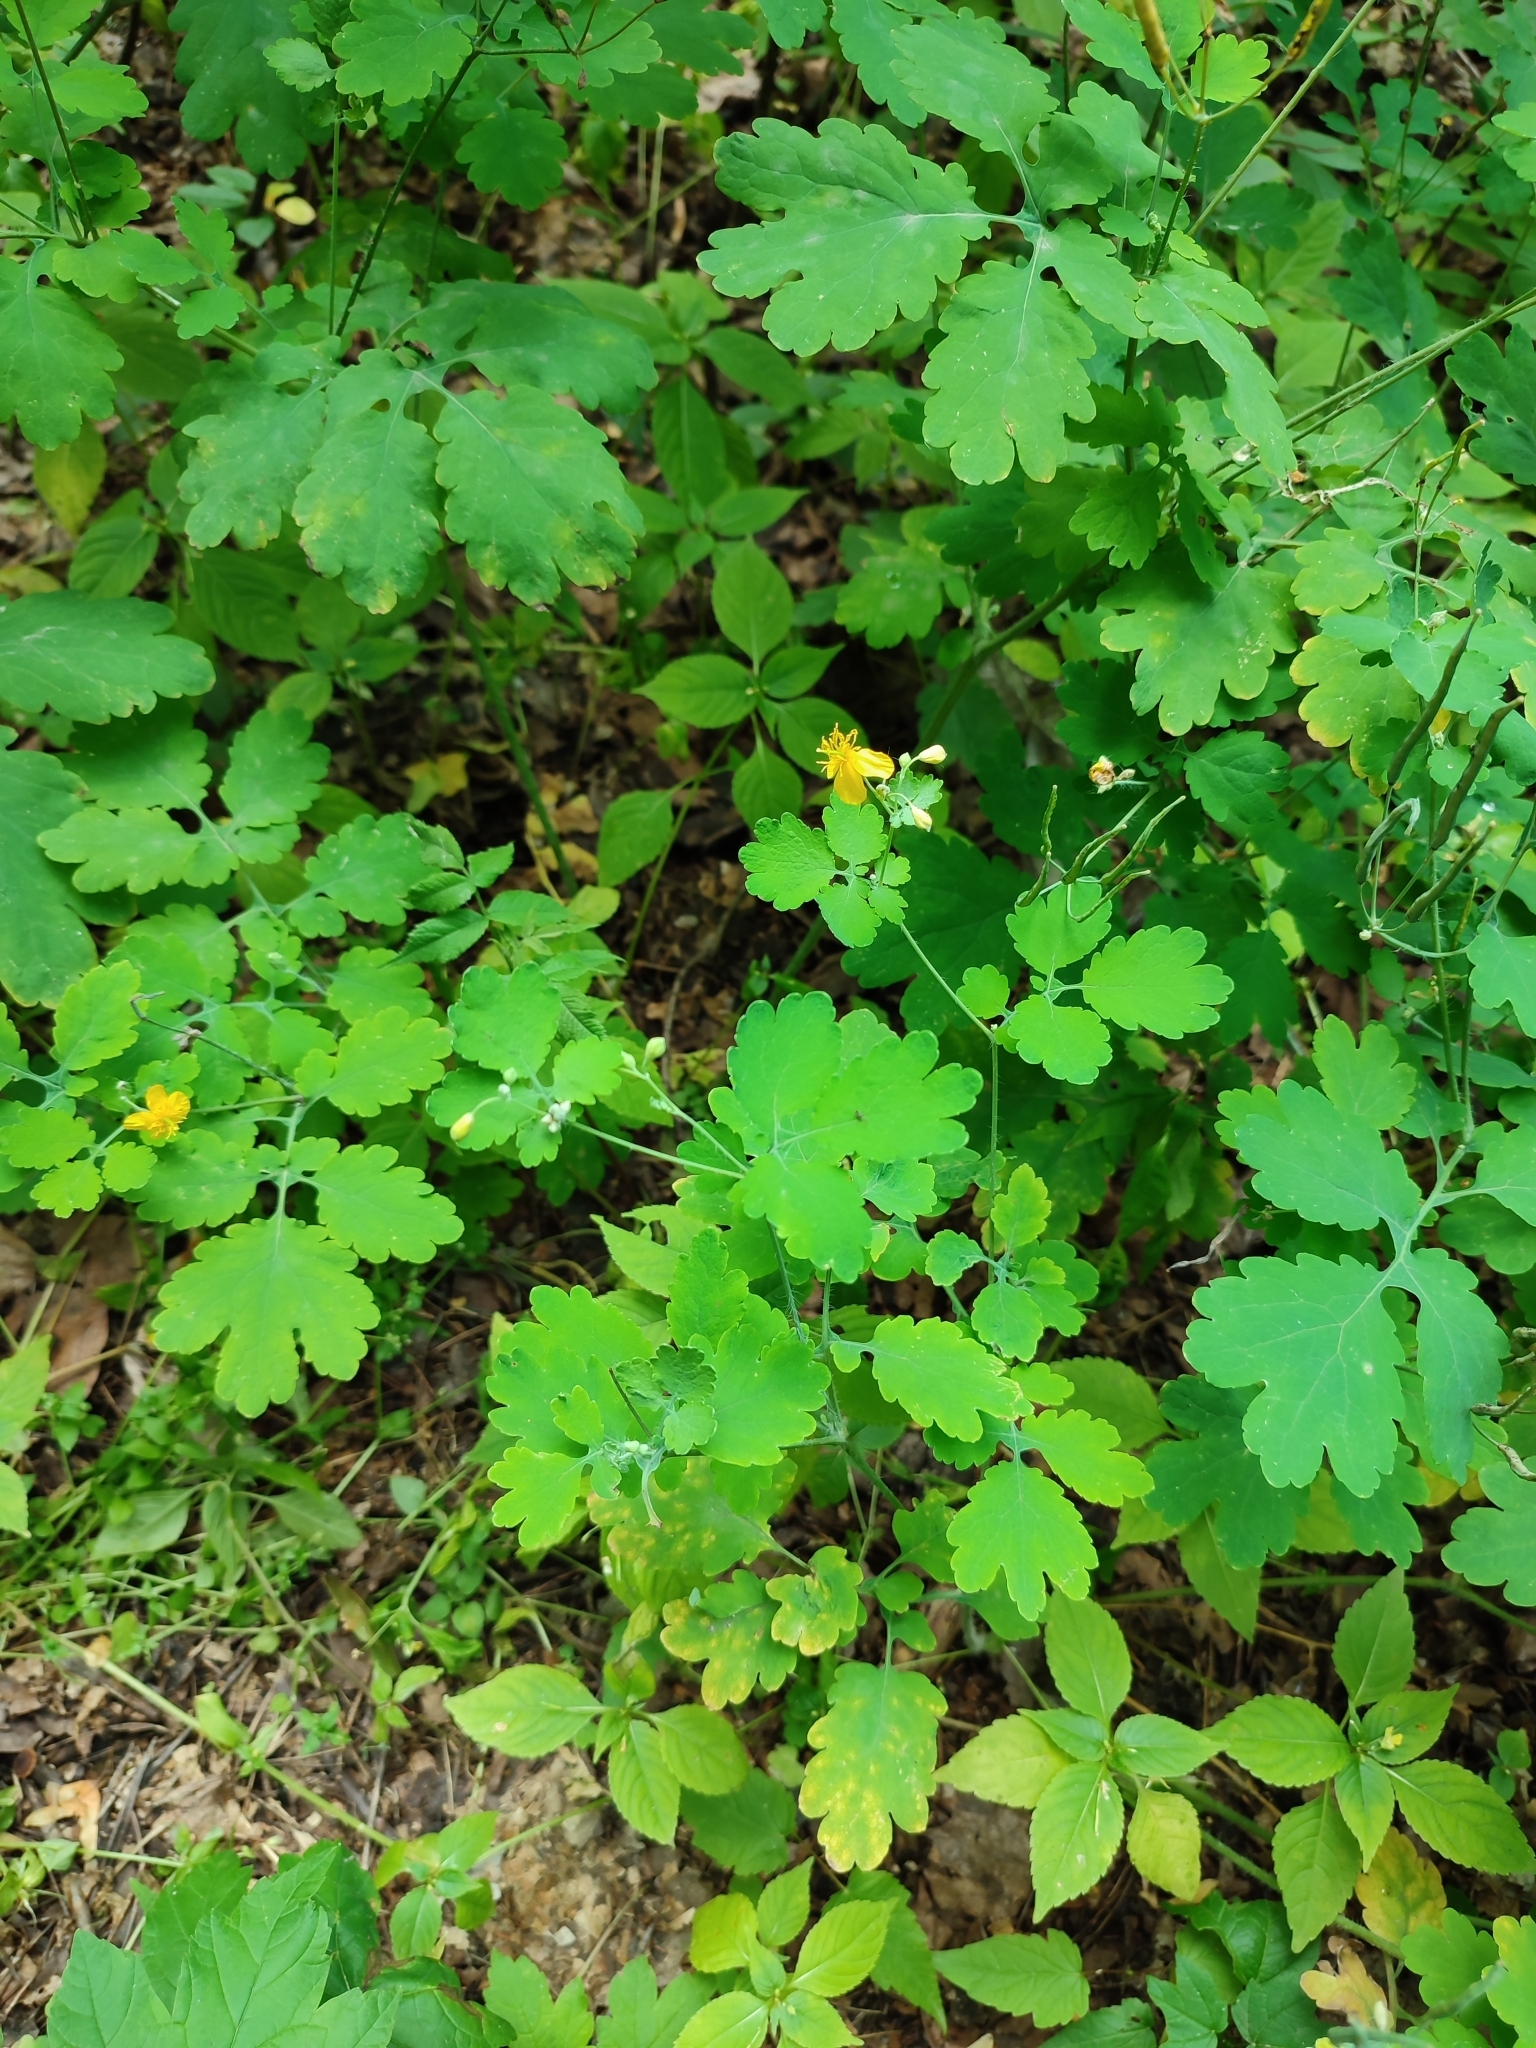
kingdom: Plantae
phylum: Tracheophyta
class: Magnoliopsida
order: Ranunculales
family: Papaveraceae
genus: Chelidonium
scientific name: Chelidonium majus
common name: Greater celandine
